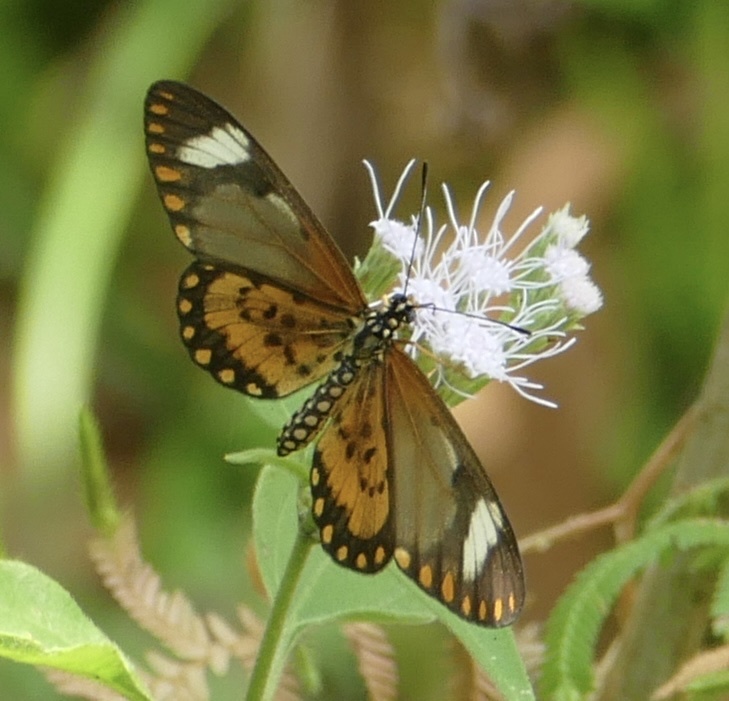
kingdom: Animalia
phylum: Arthropoda
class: Insecta
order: Lepidoptera
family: Nymphalidae
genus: Acraea
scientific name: Acraea Telchinia serena
